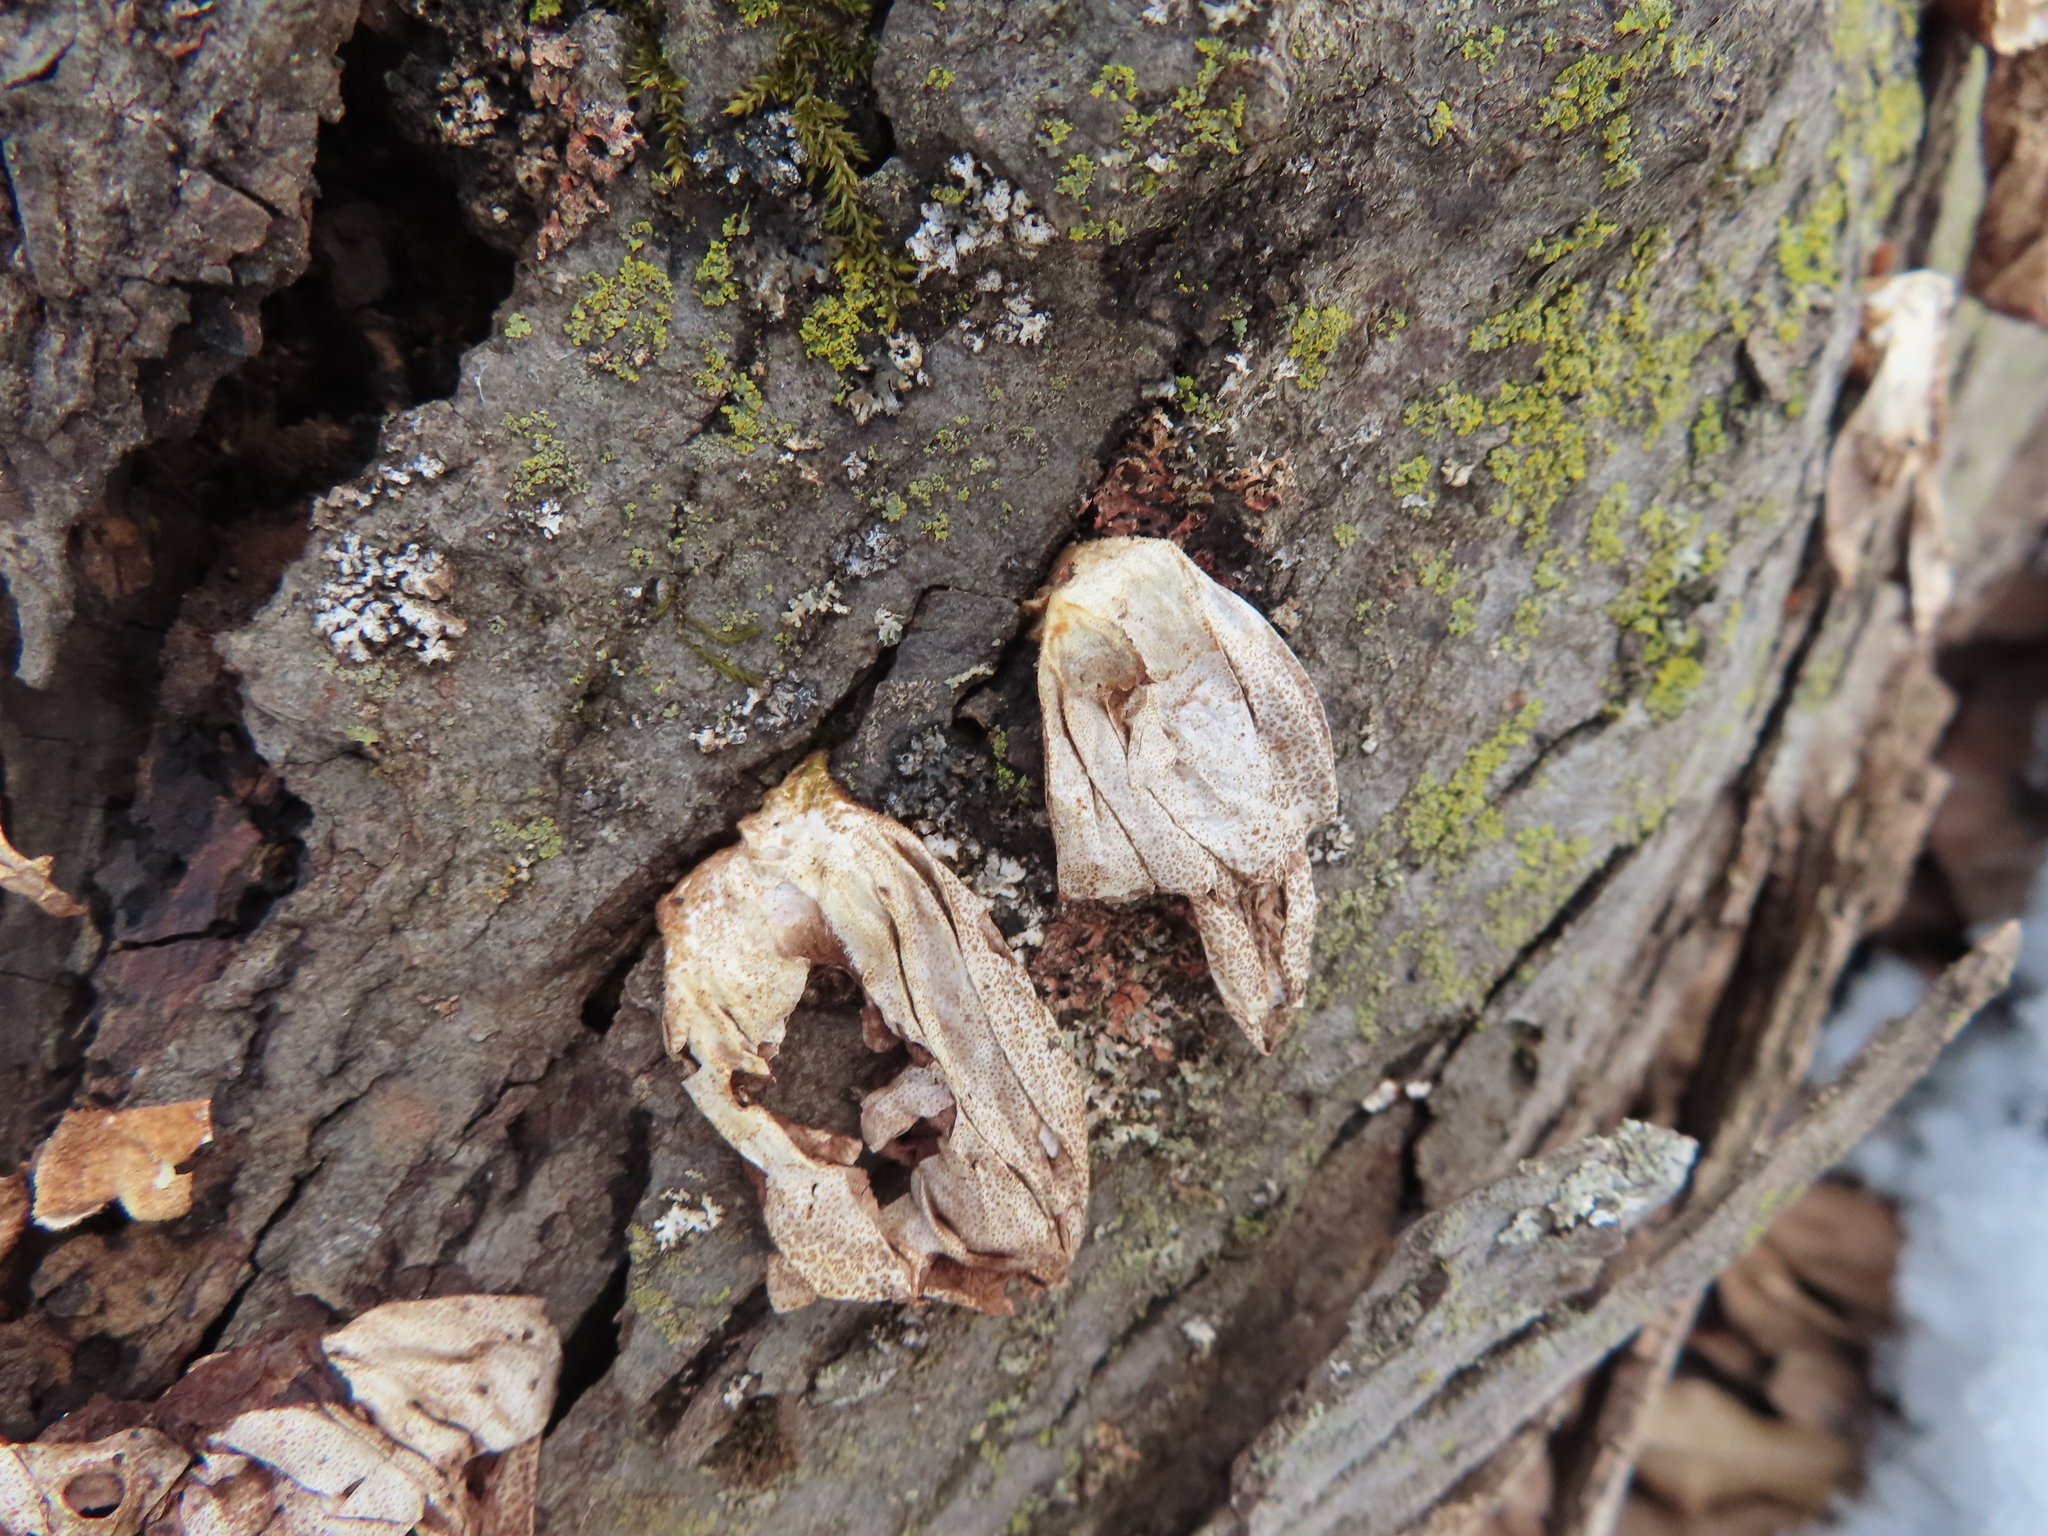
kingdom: Fungi
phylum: Basidiomycota
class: Agaricomycetes
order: Agaricales
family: Lycoperdaceae
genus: Apioperdon
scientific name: Apioperdon pyriforme
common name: Pear-shaped puffball
